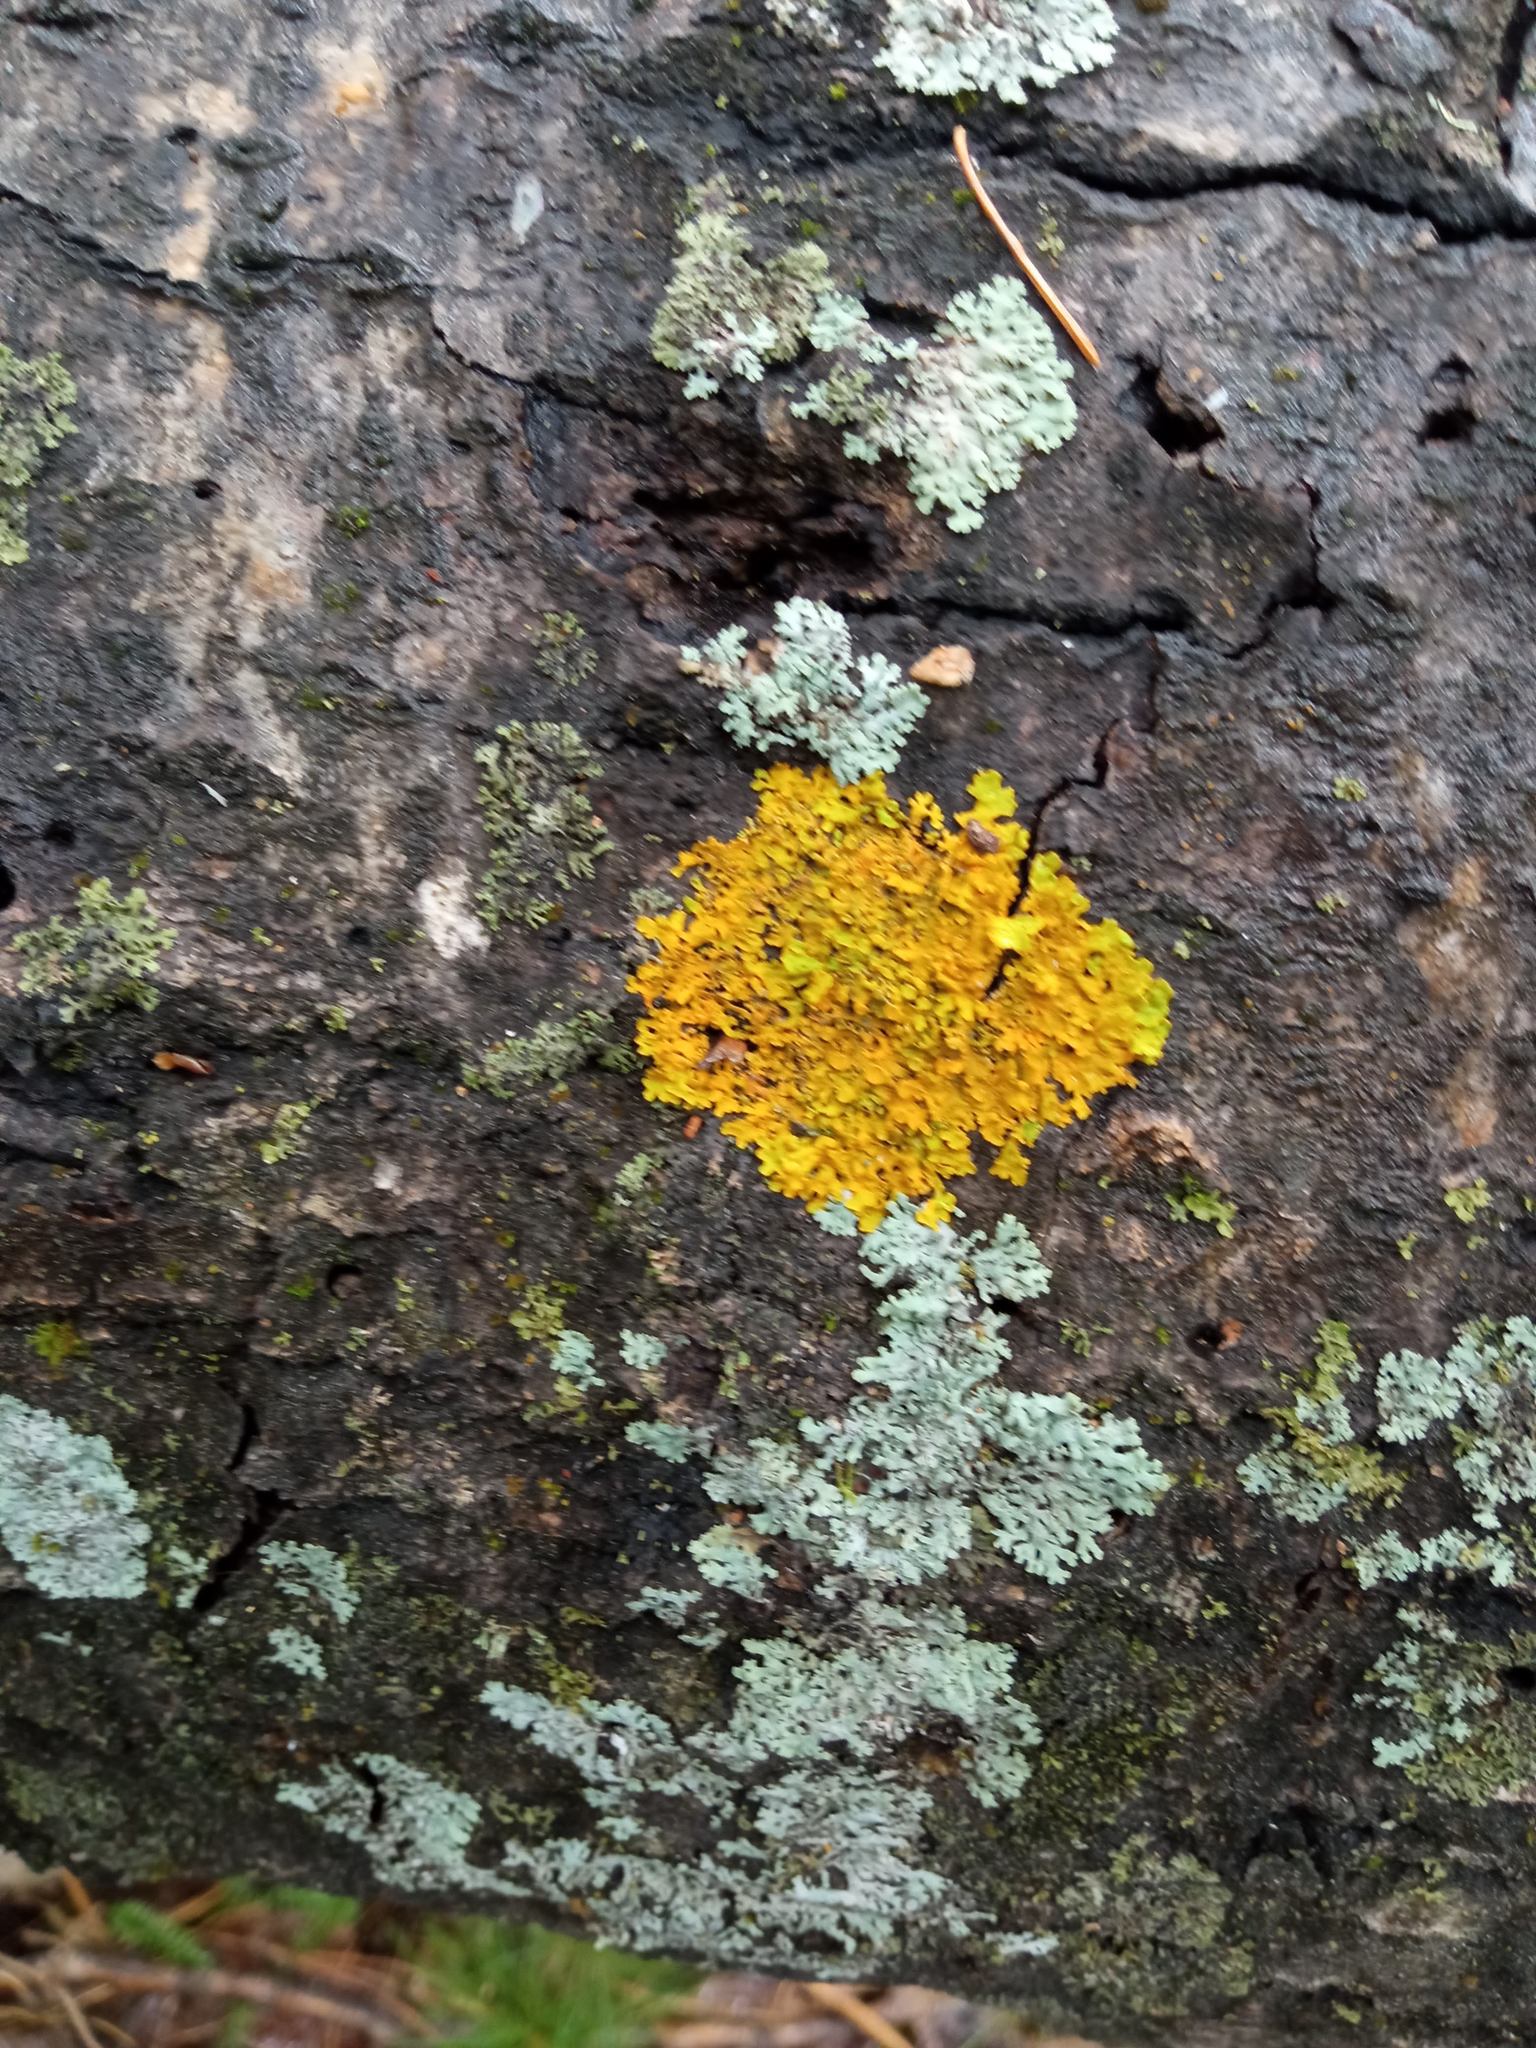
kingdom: Fungi
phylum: Ascomycota
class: Lecanoromycetes
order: Teloschistales
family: Teloschistaceae
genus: Xanthoria
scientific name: Xanthoria parietina
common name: Common orange lichen
